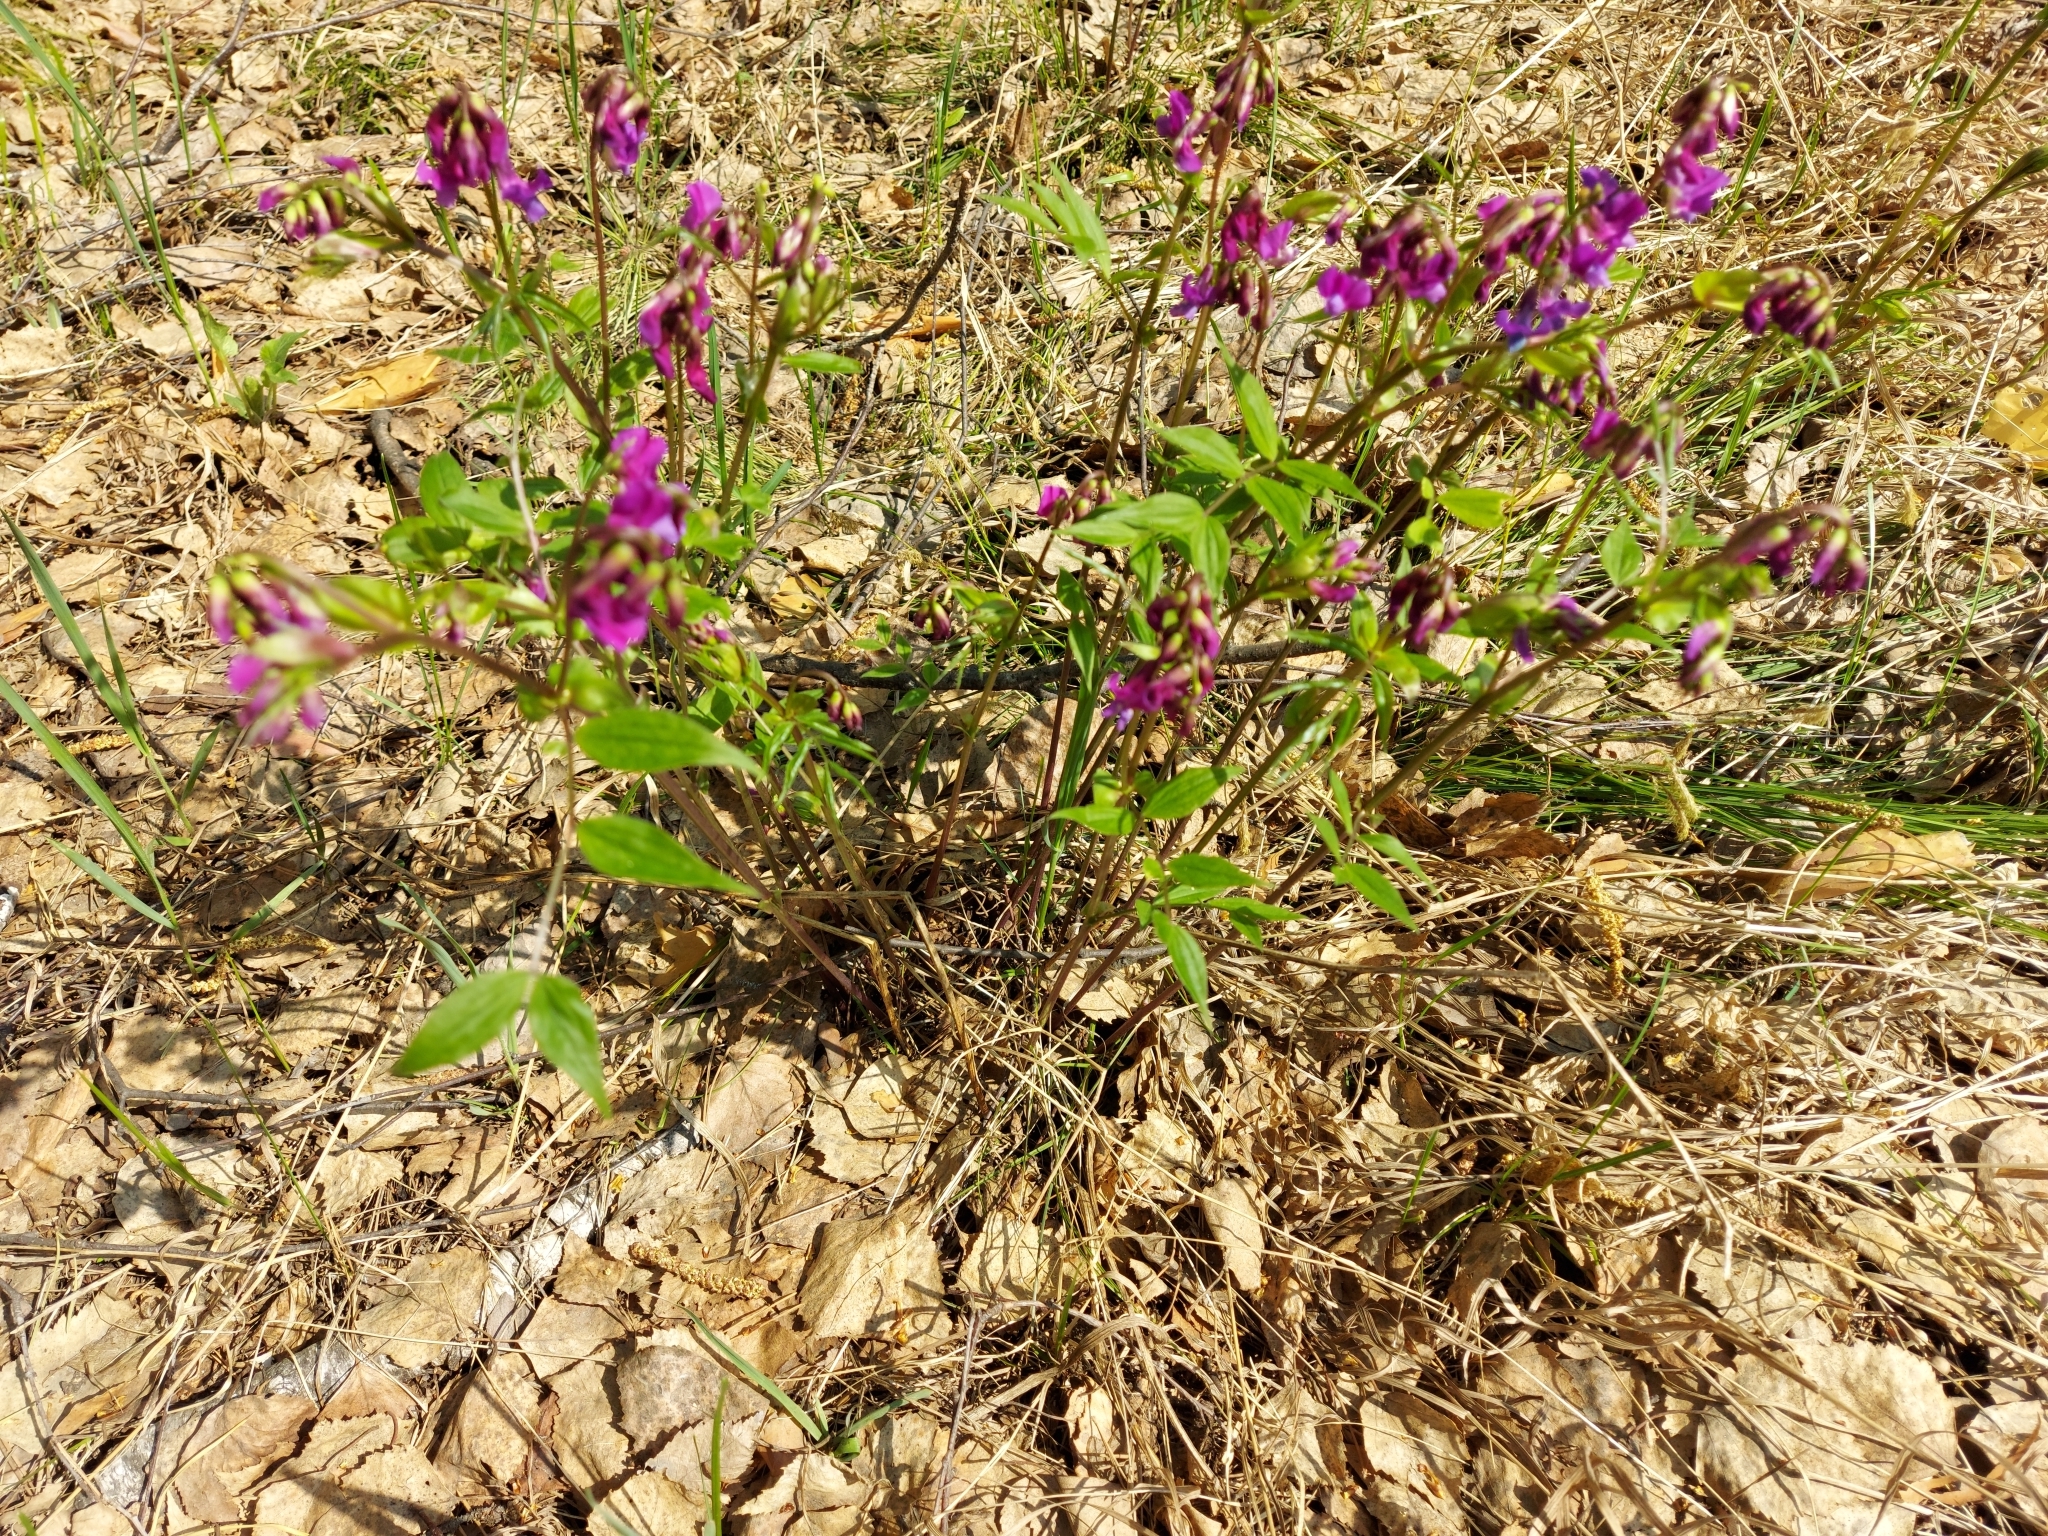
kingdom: Plantae
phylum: Tracheophyta
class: Magnoliopsida
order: Fabales
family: Fabaceae
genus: Lathyrus
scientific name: Lathyrus vernus
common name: Spring pea
